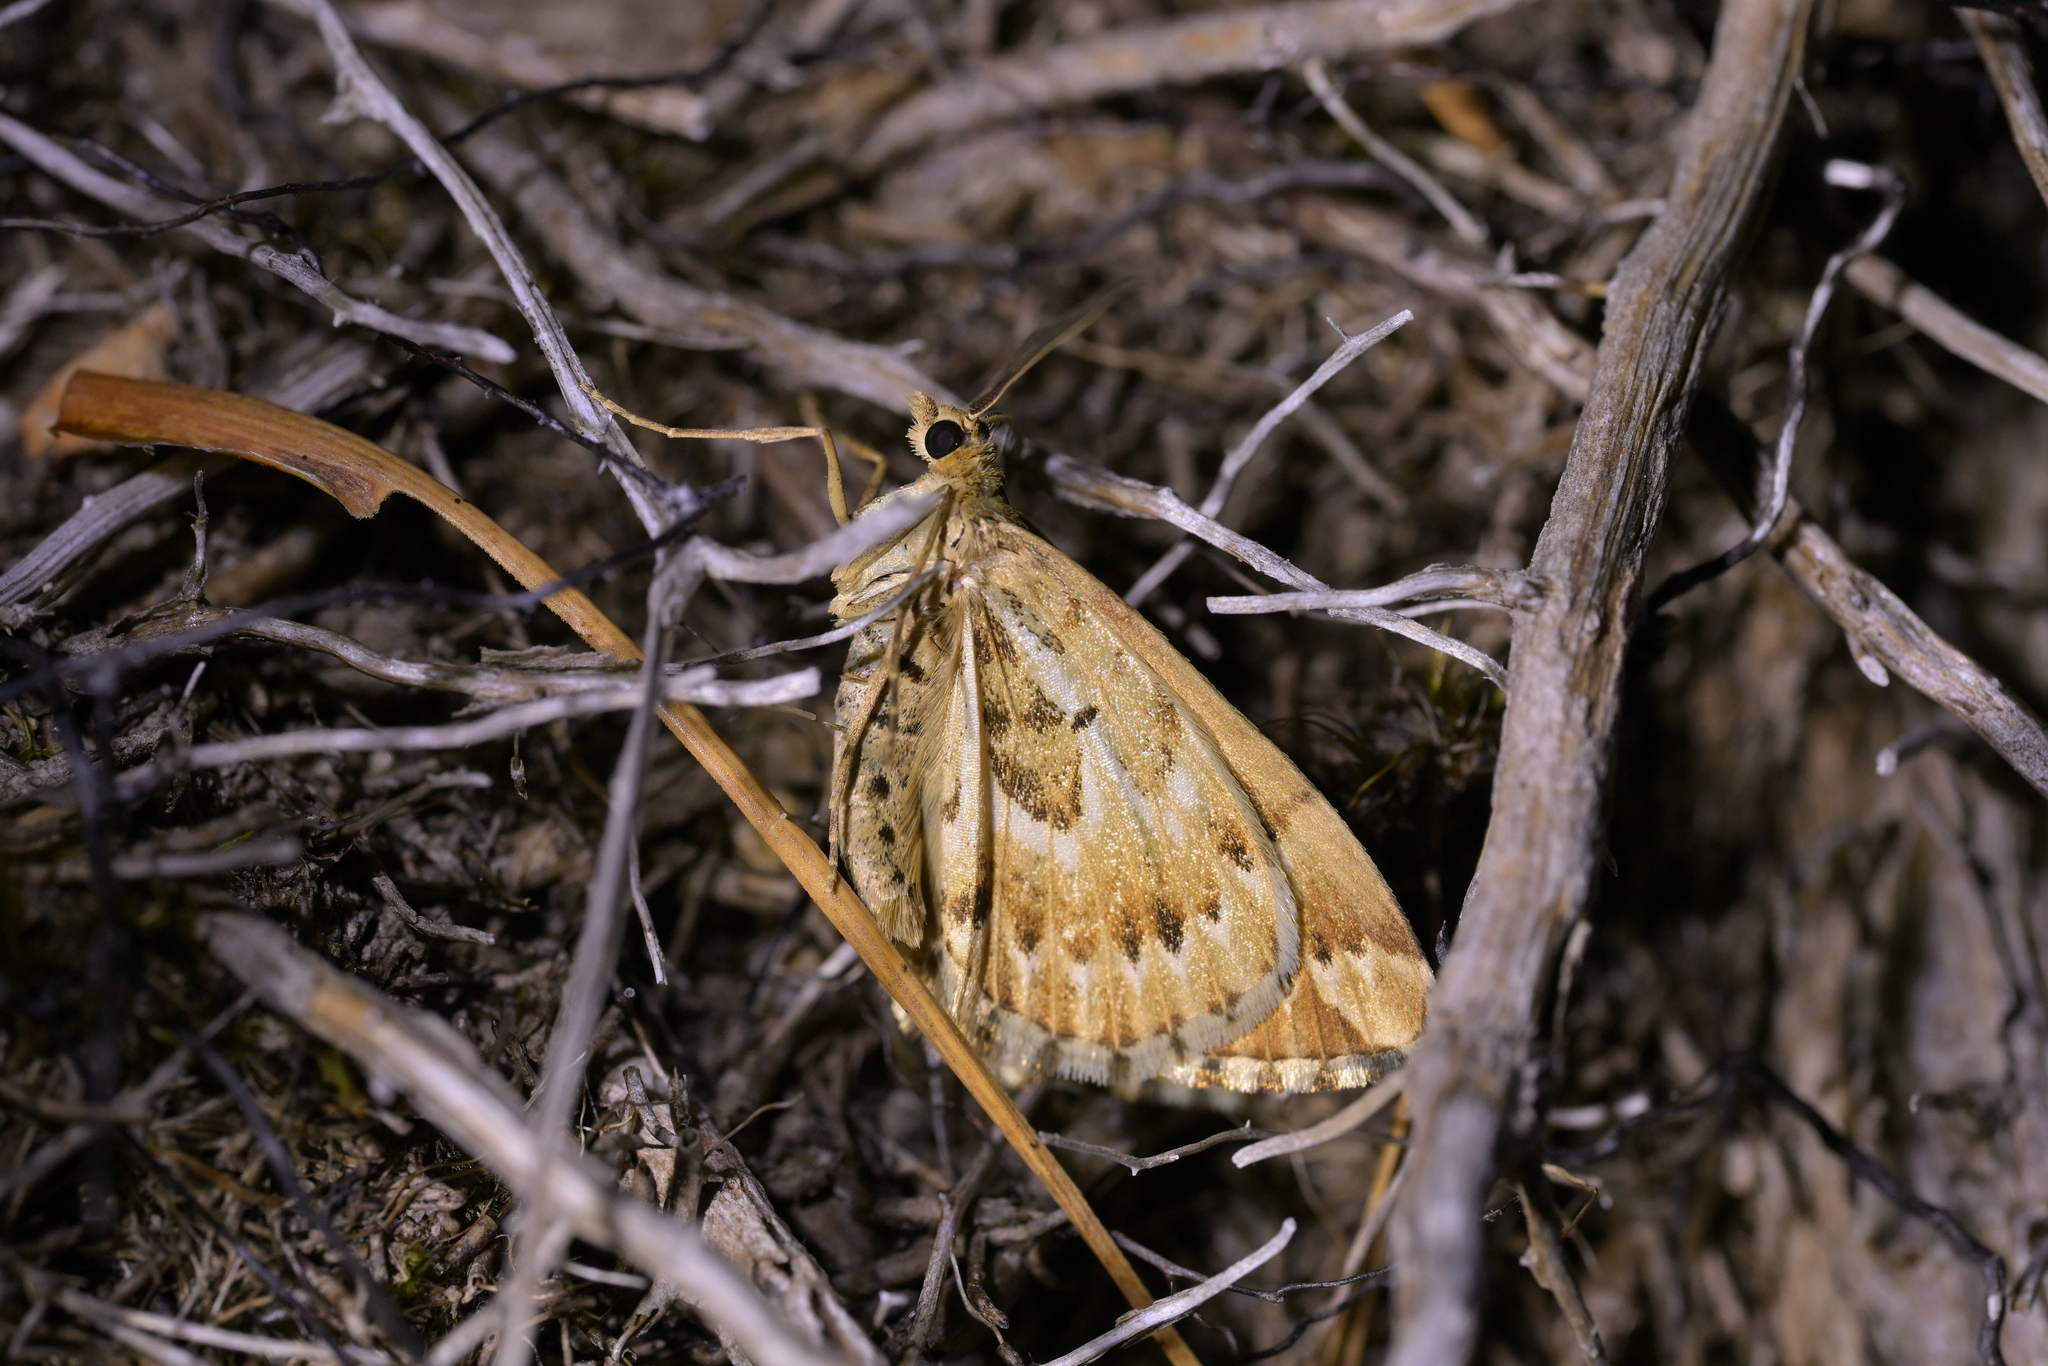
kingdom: Animalia
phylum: Arthropoda
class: Insecta
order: Lepidoptera
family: Geometridae
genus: Asaphodes
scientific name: Asaphodes clarata
